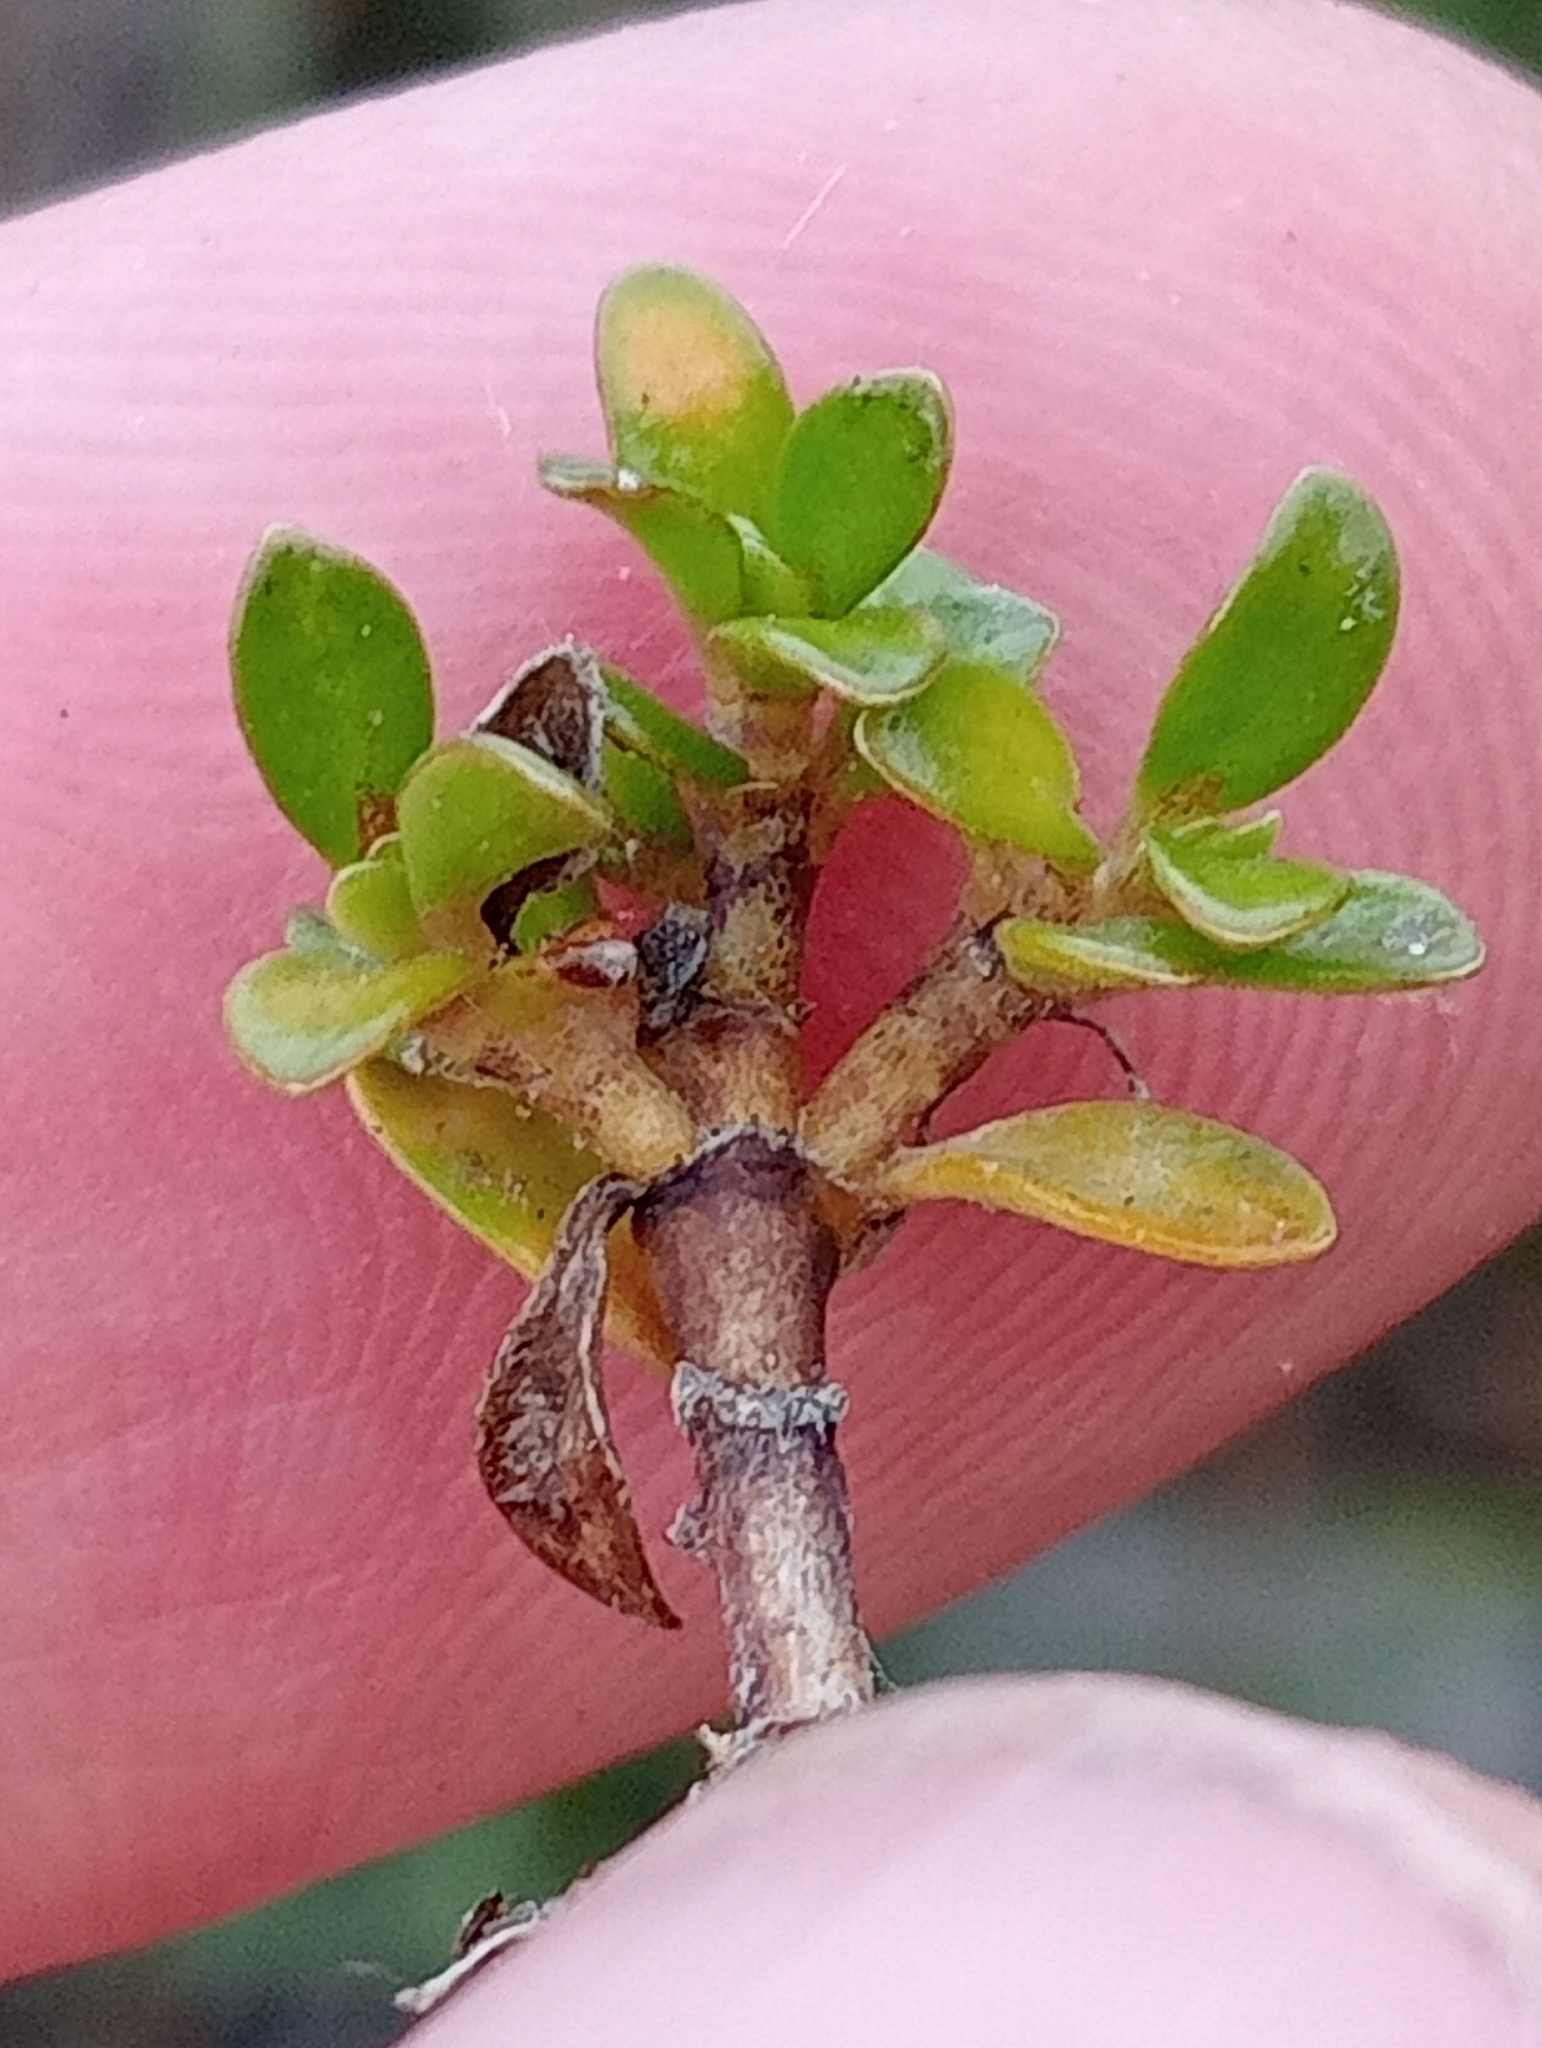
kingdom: Plantae
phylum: Tracheophyta
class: Magnoliopsida
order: Gentianales
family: Rubiaceae
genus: Coprosma
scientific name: Coprosma perpusilla
